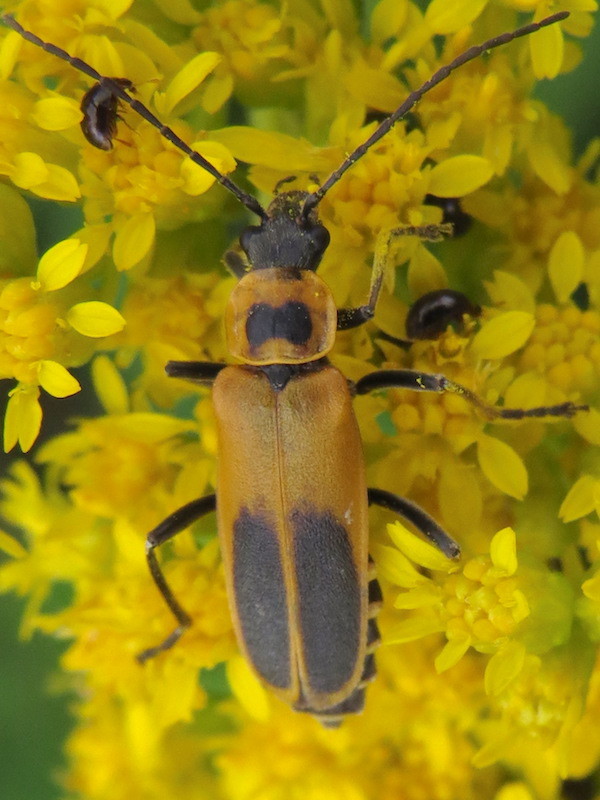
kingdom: Animalia
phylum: Arthropoda
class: Insecta
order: Coleoptera
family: Cantharidae
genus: Chauliognathus
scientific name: Chauliognathus pensylvanicus
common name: Goldenrod soldier beetle
